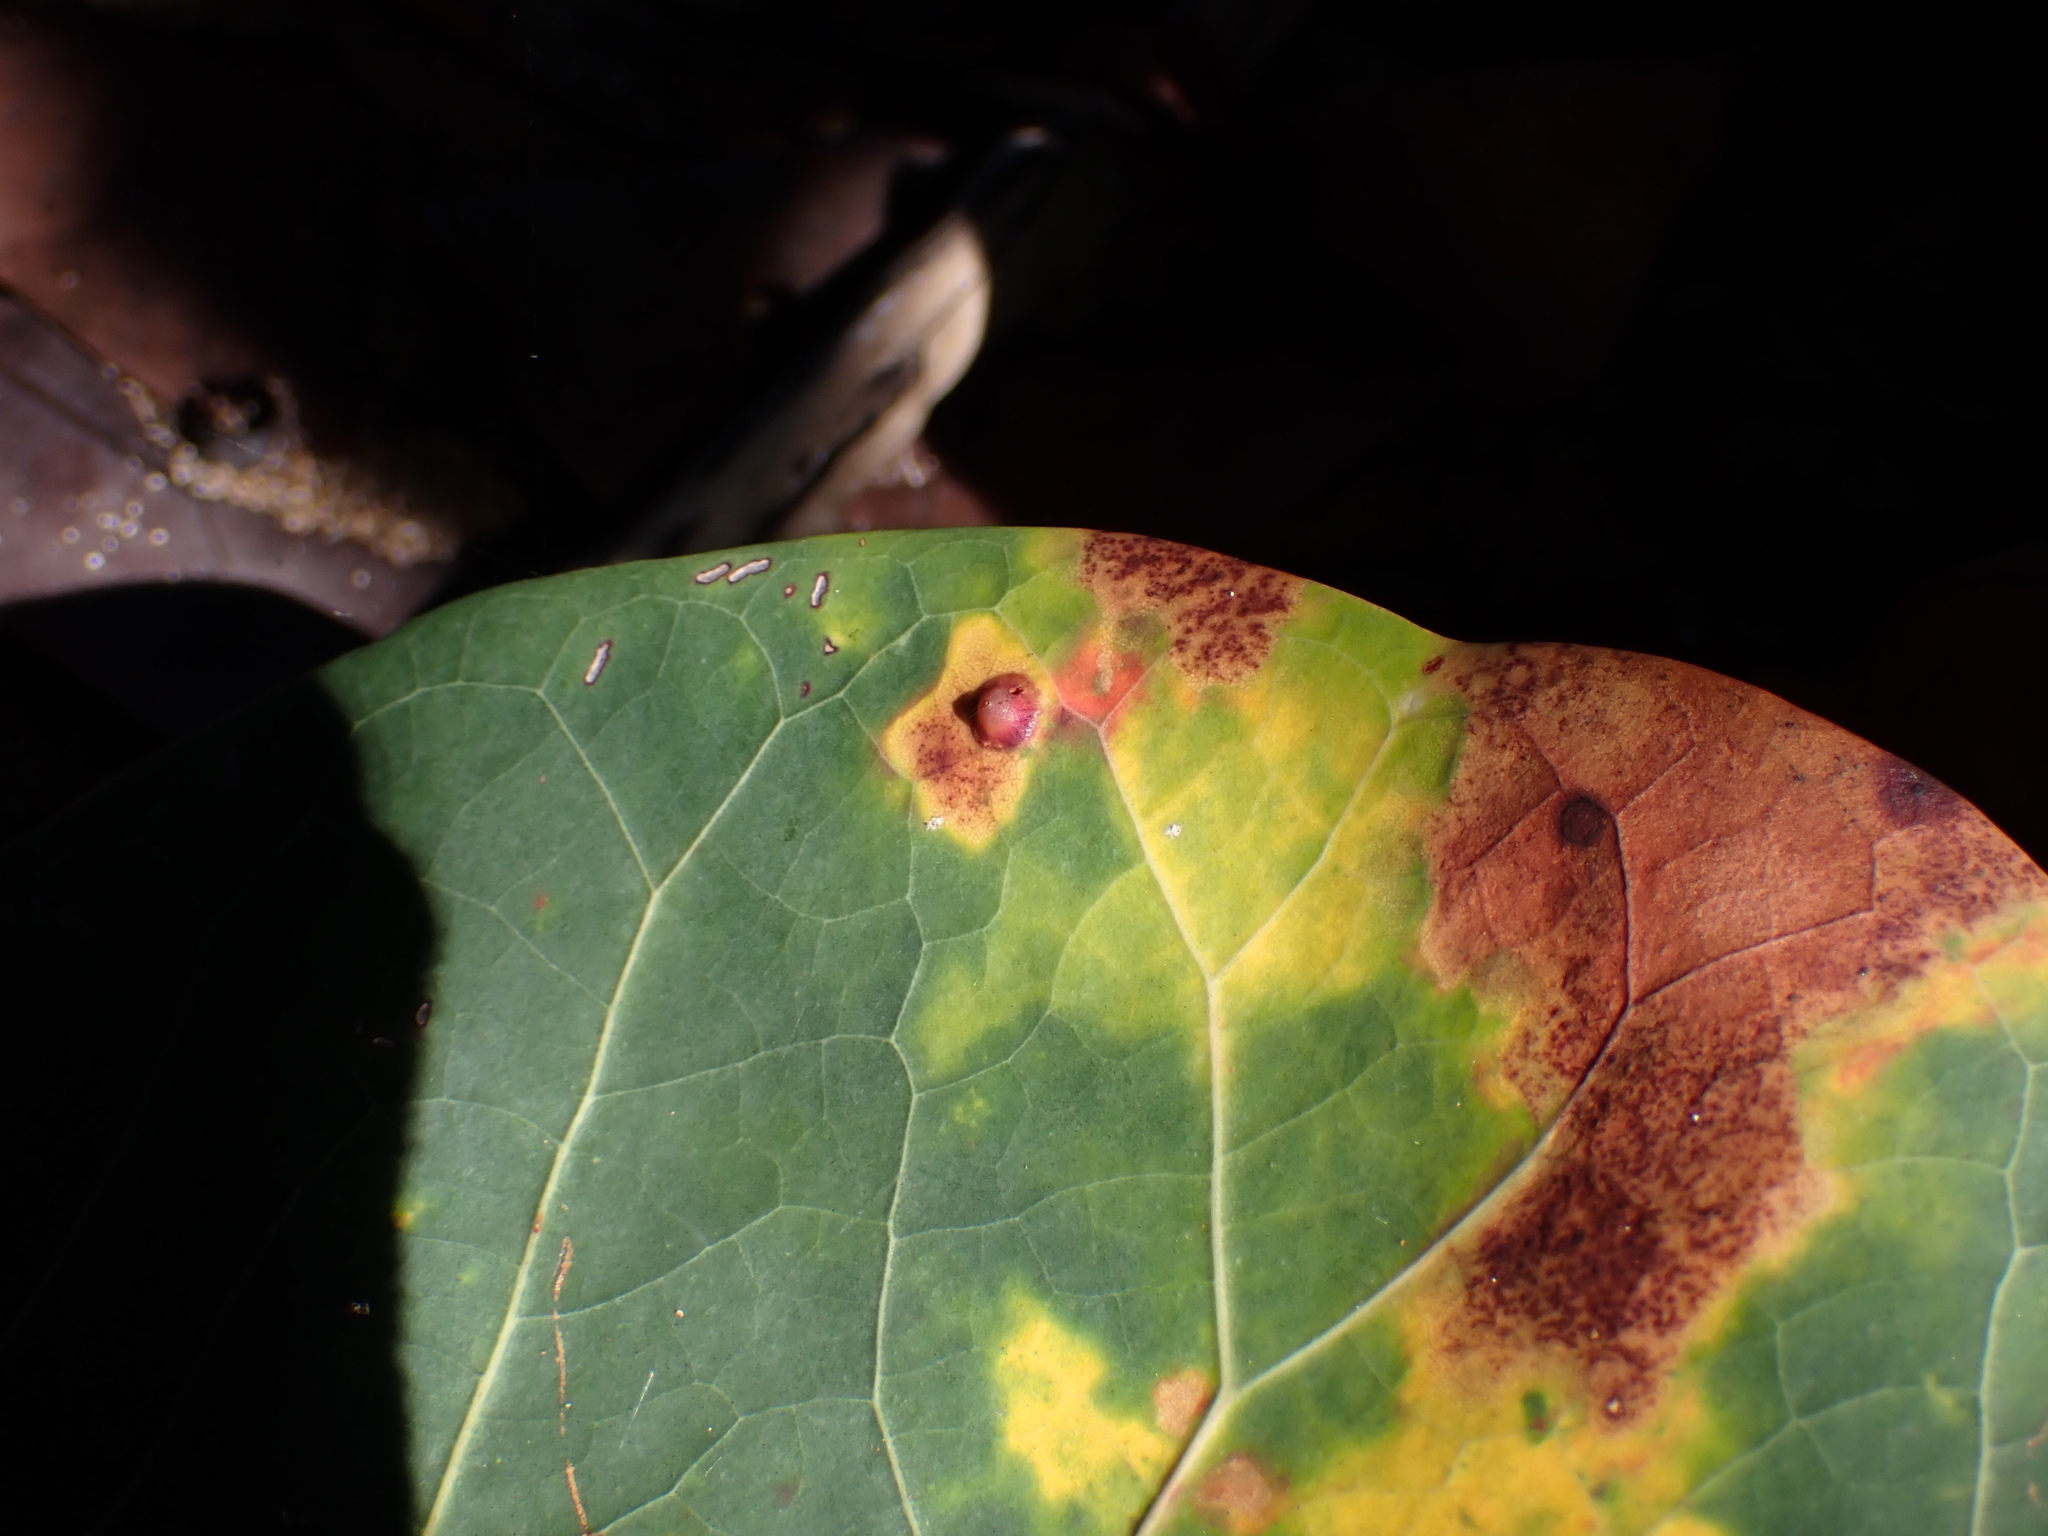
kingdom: Animalia
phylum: Arthropoda
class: Insecta
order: Diptera
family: Cecidomyiidae
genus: Ctenodactylomyia
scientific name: Ctenodactylomyia watsoni
